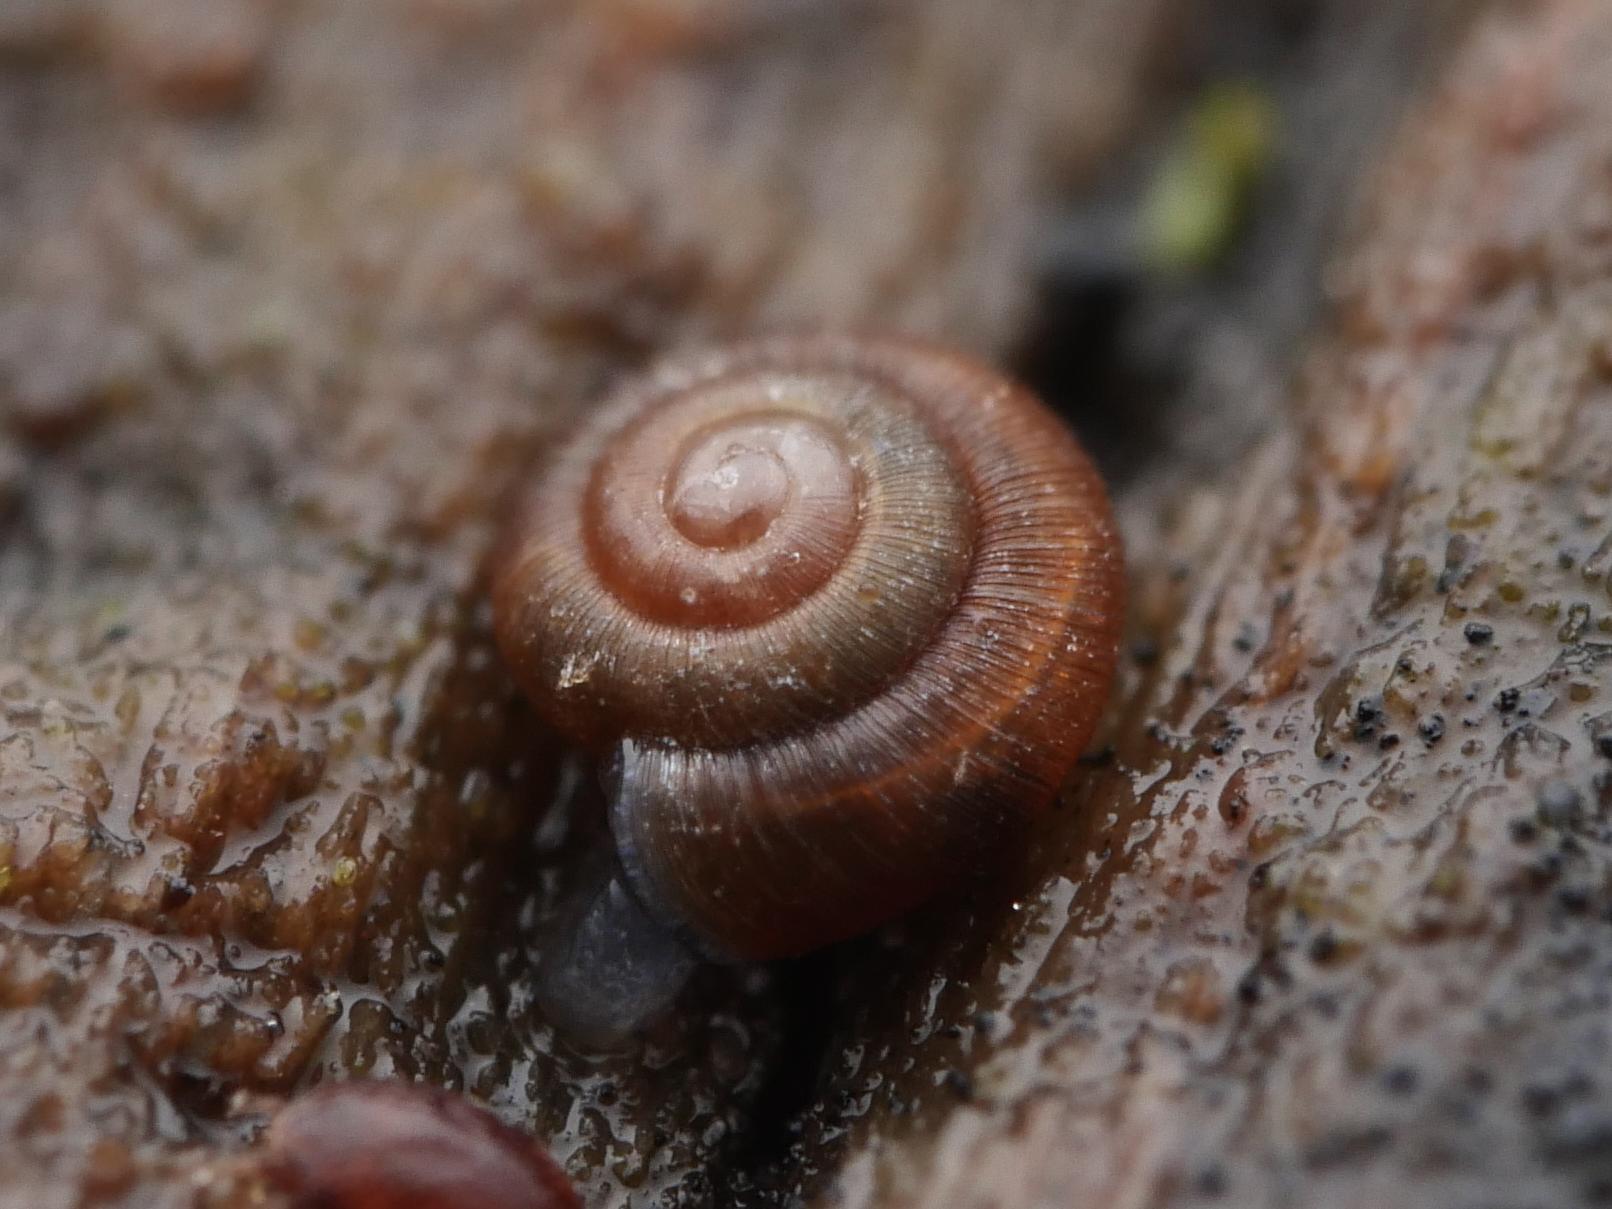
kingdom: Animalia
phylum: Mollusca
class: Gastropoda
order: Stylommatophora
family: Punctidae
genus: Punctum
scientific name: Punctum pygmaeum
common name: Dwarf snail
